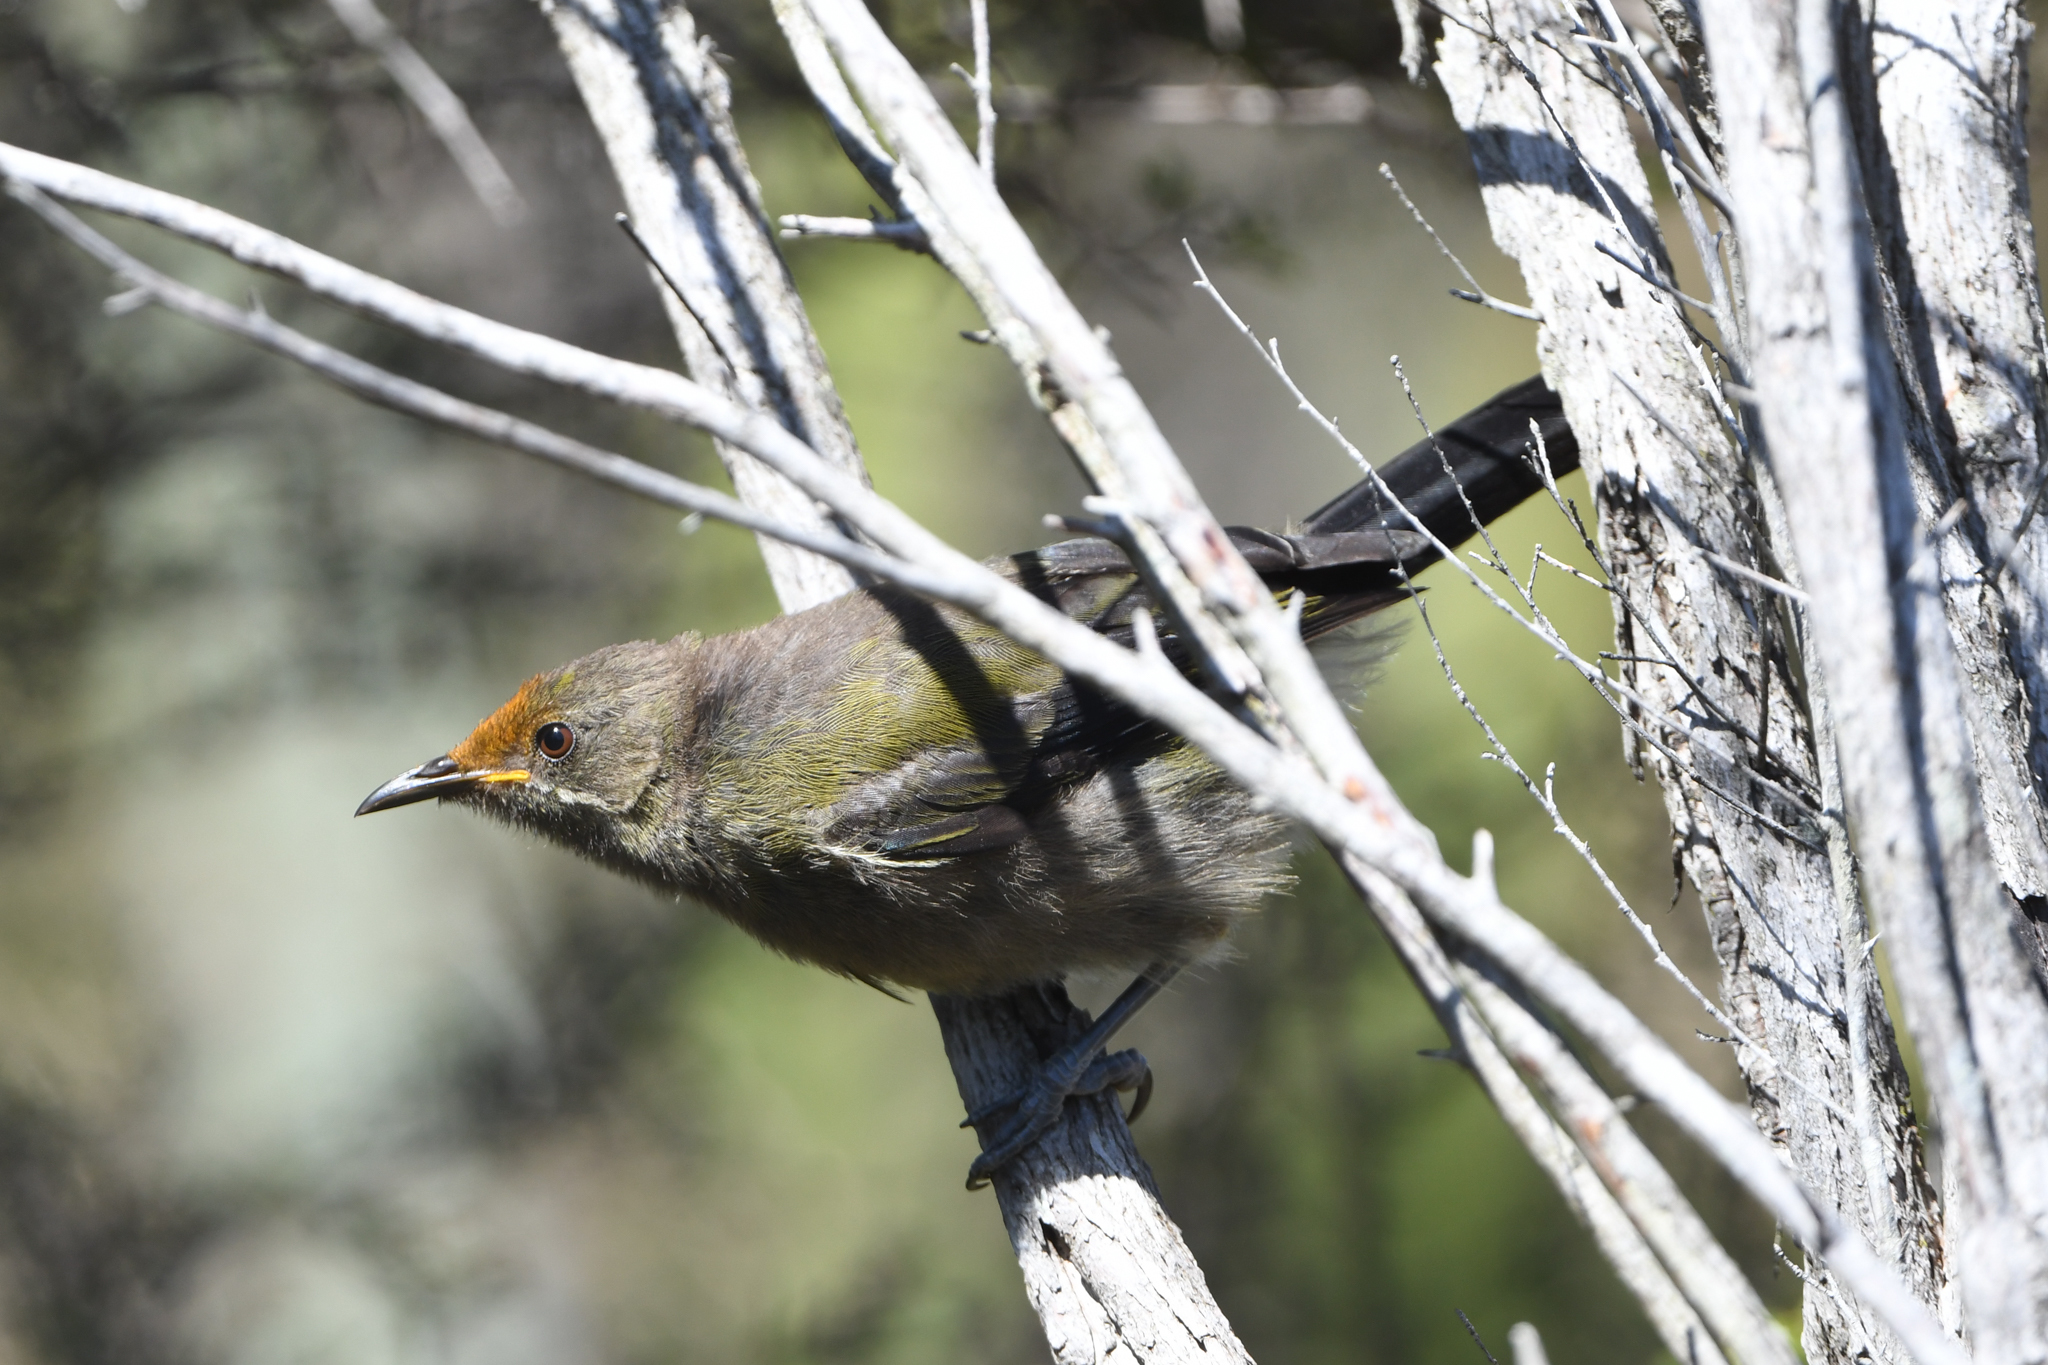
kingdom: Animalia
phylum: Chordata
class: Aves
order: Passeriformes
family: Meliphagidae
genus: Anthornis
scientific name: Anthornis melanura
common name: New zealand bellbird
